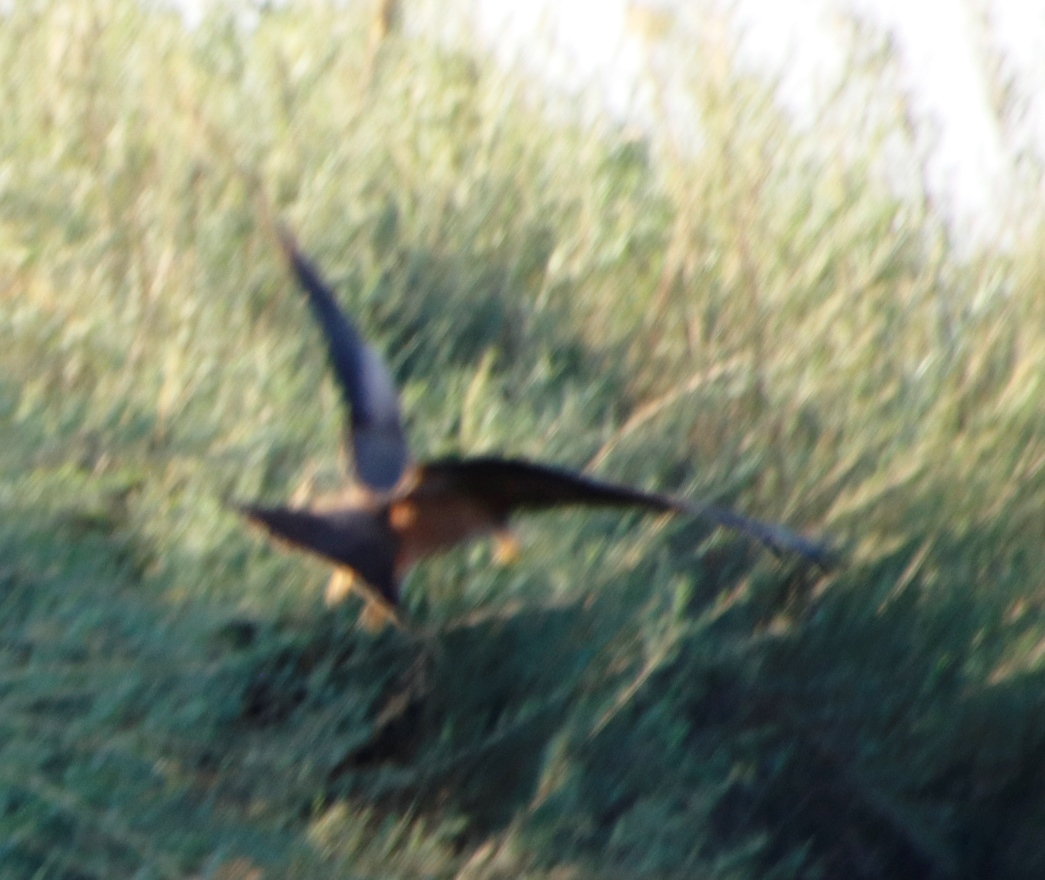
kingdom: Animalia
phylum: Chordata
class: Aves
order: Accipitriformes
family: Accipitridae
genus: Milvus
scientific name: Milvus migrans
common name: Black kite
